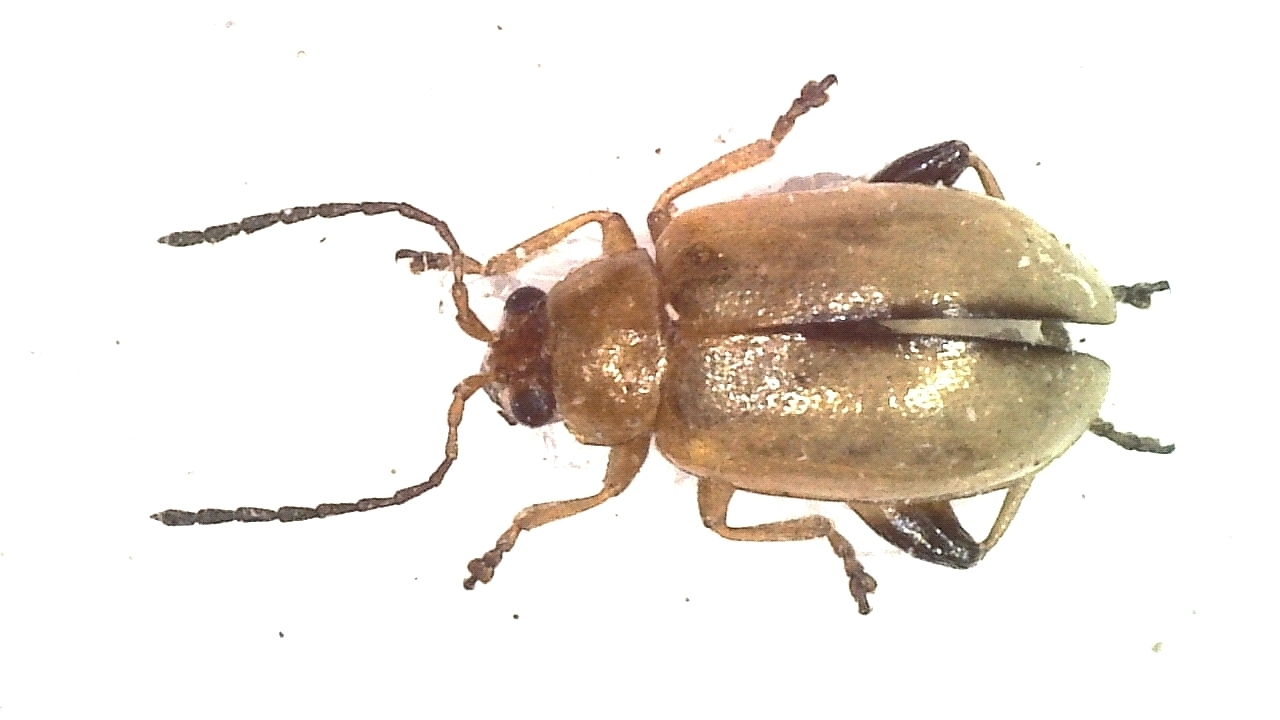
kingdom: Animalia
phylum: Arthropoda
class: Insecta
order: Coleoptera
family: Chrysomelidae
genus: Longitarsus
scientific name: Longitarsus tabidus
